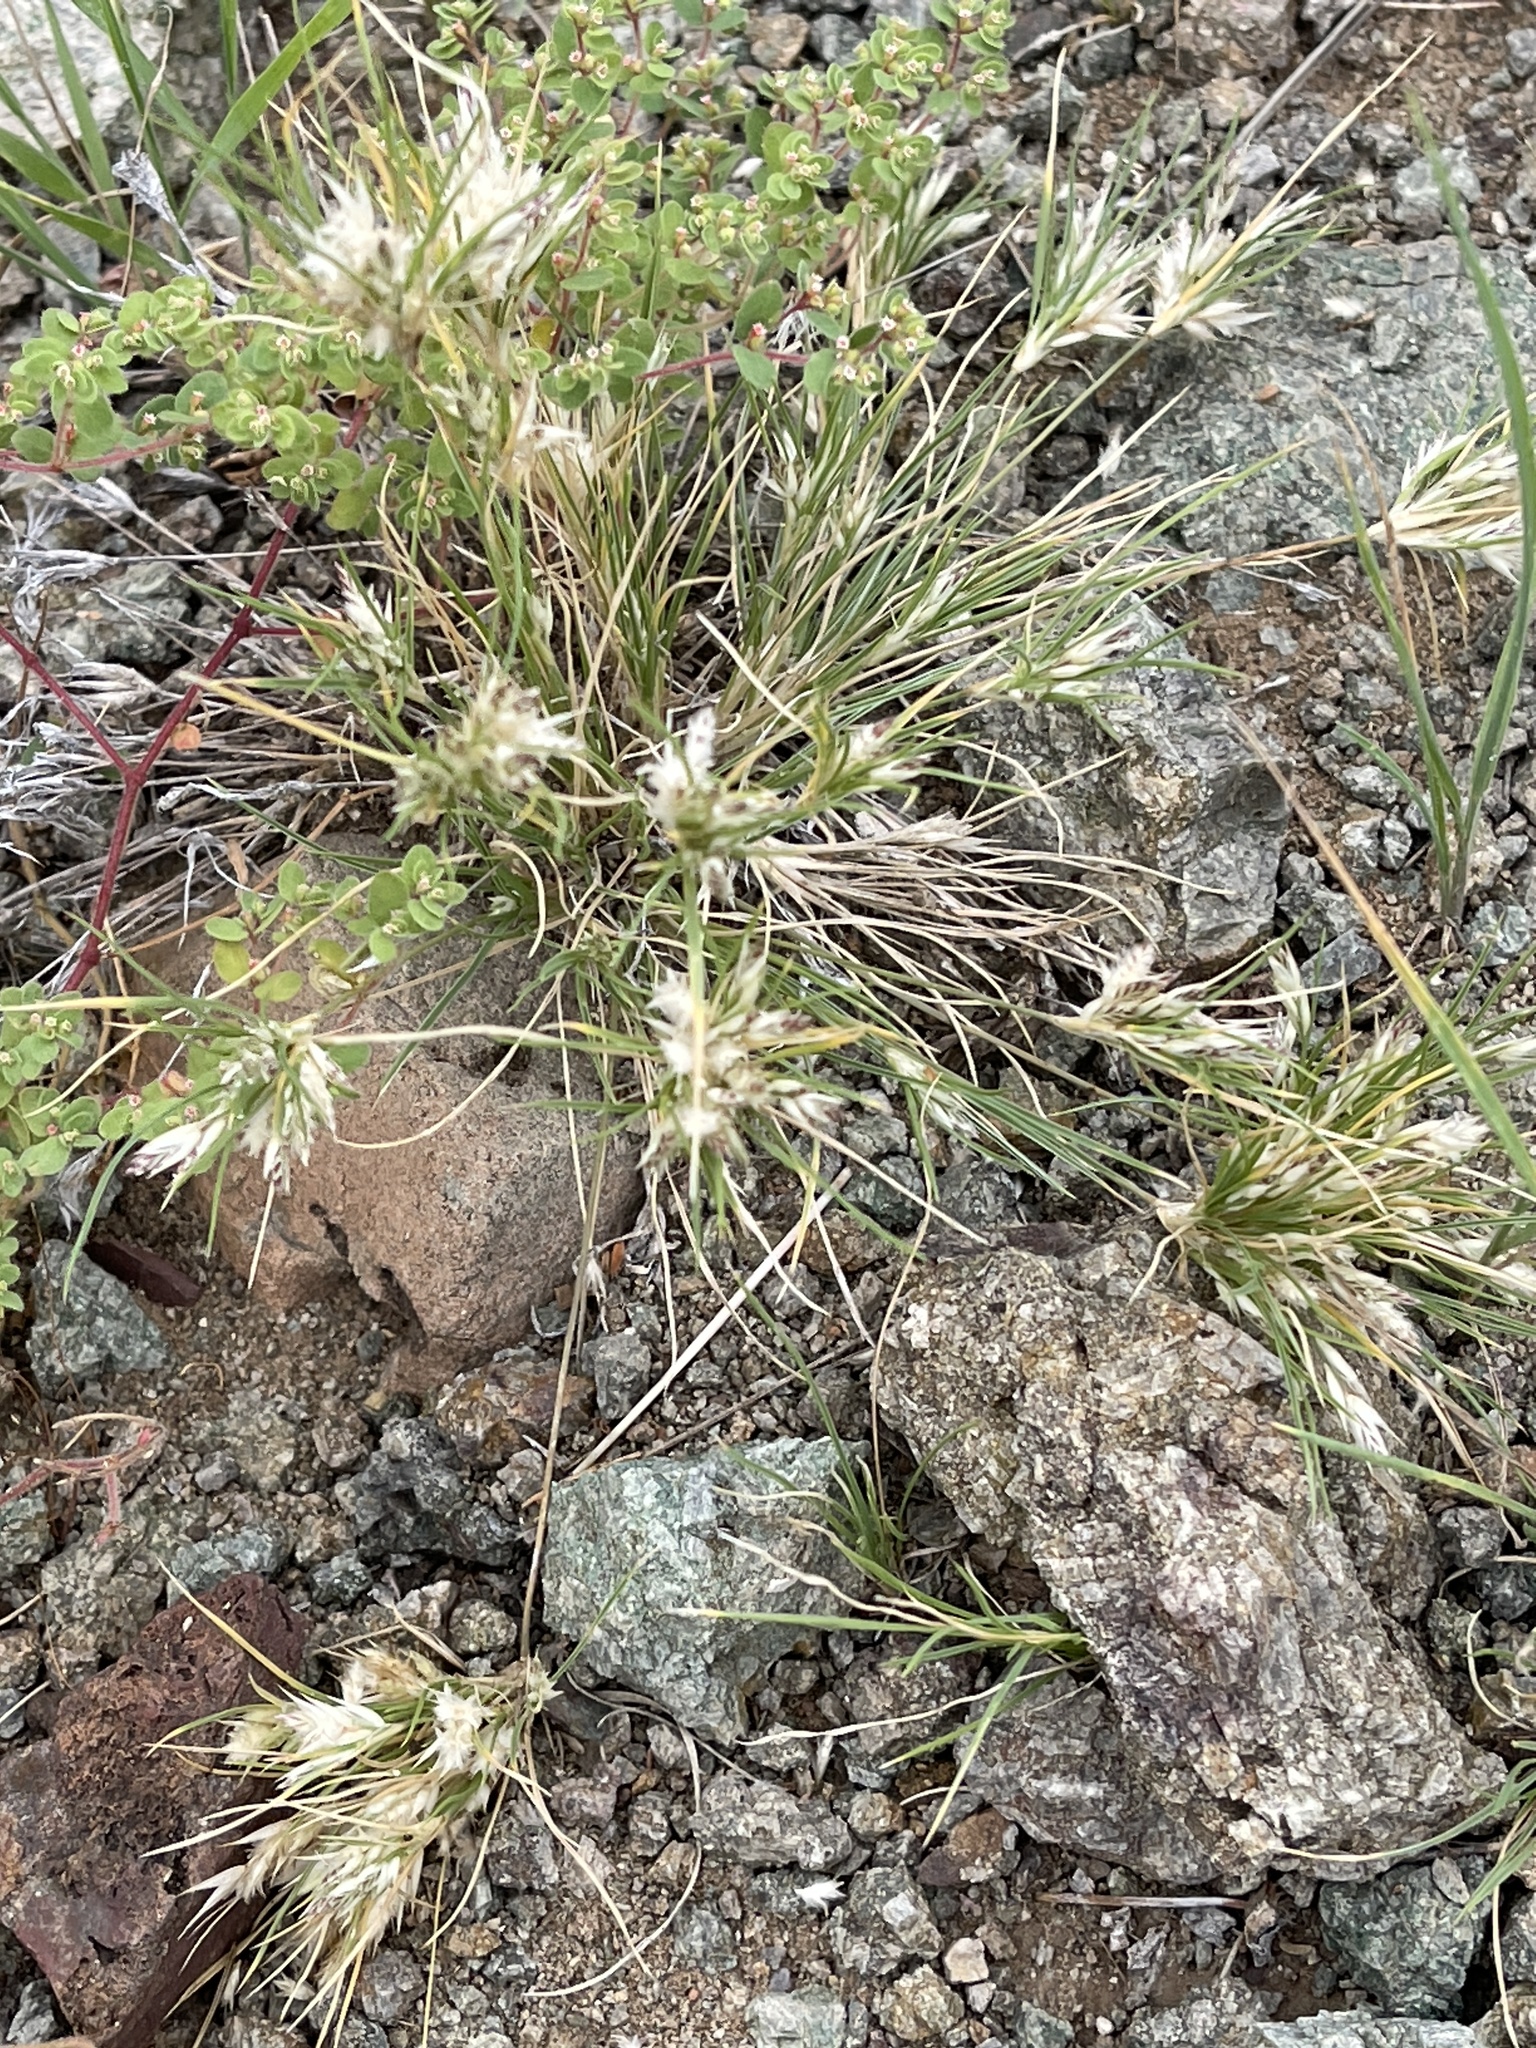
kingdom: Plantae
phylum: Tracheophyta
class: Liliopsida
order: Poales
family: Poaceae
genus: Dasyochloa
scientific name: Dasyochloa pulchella
